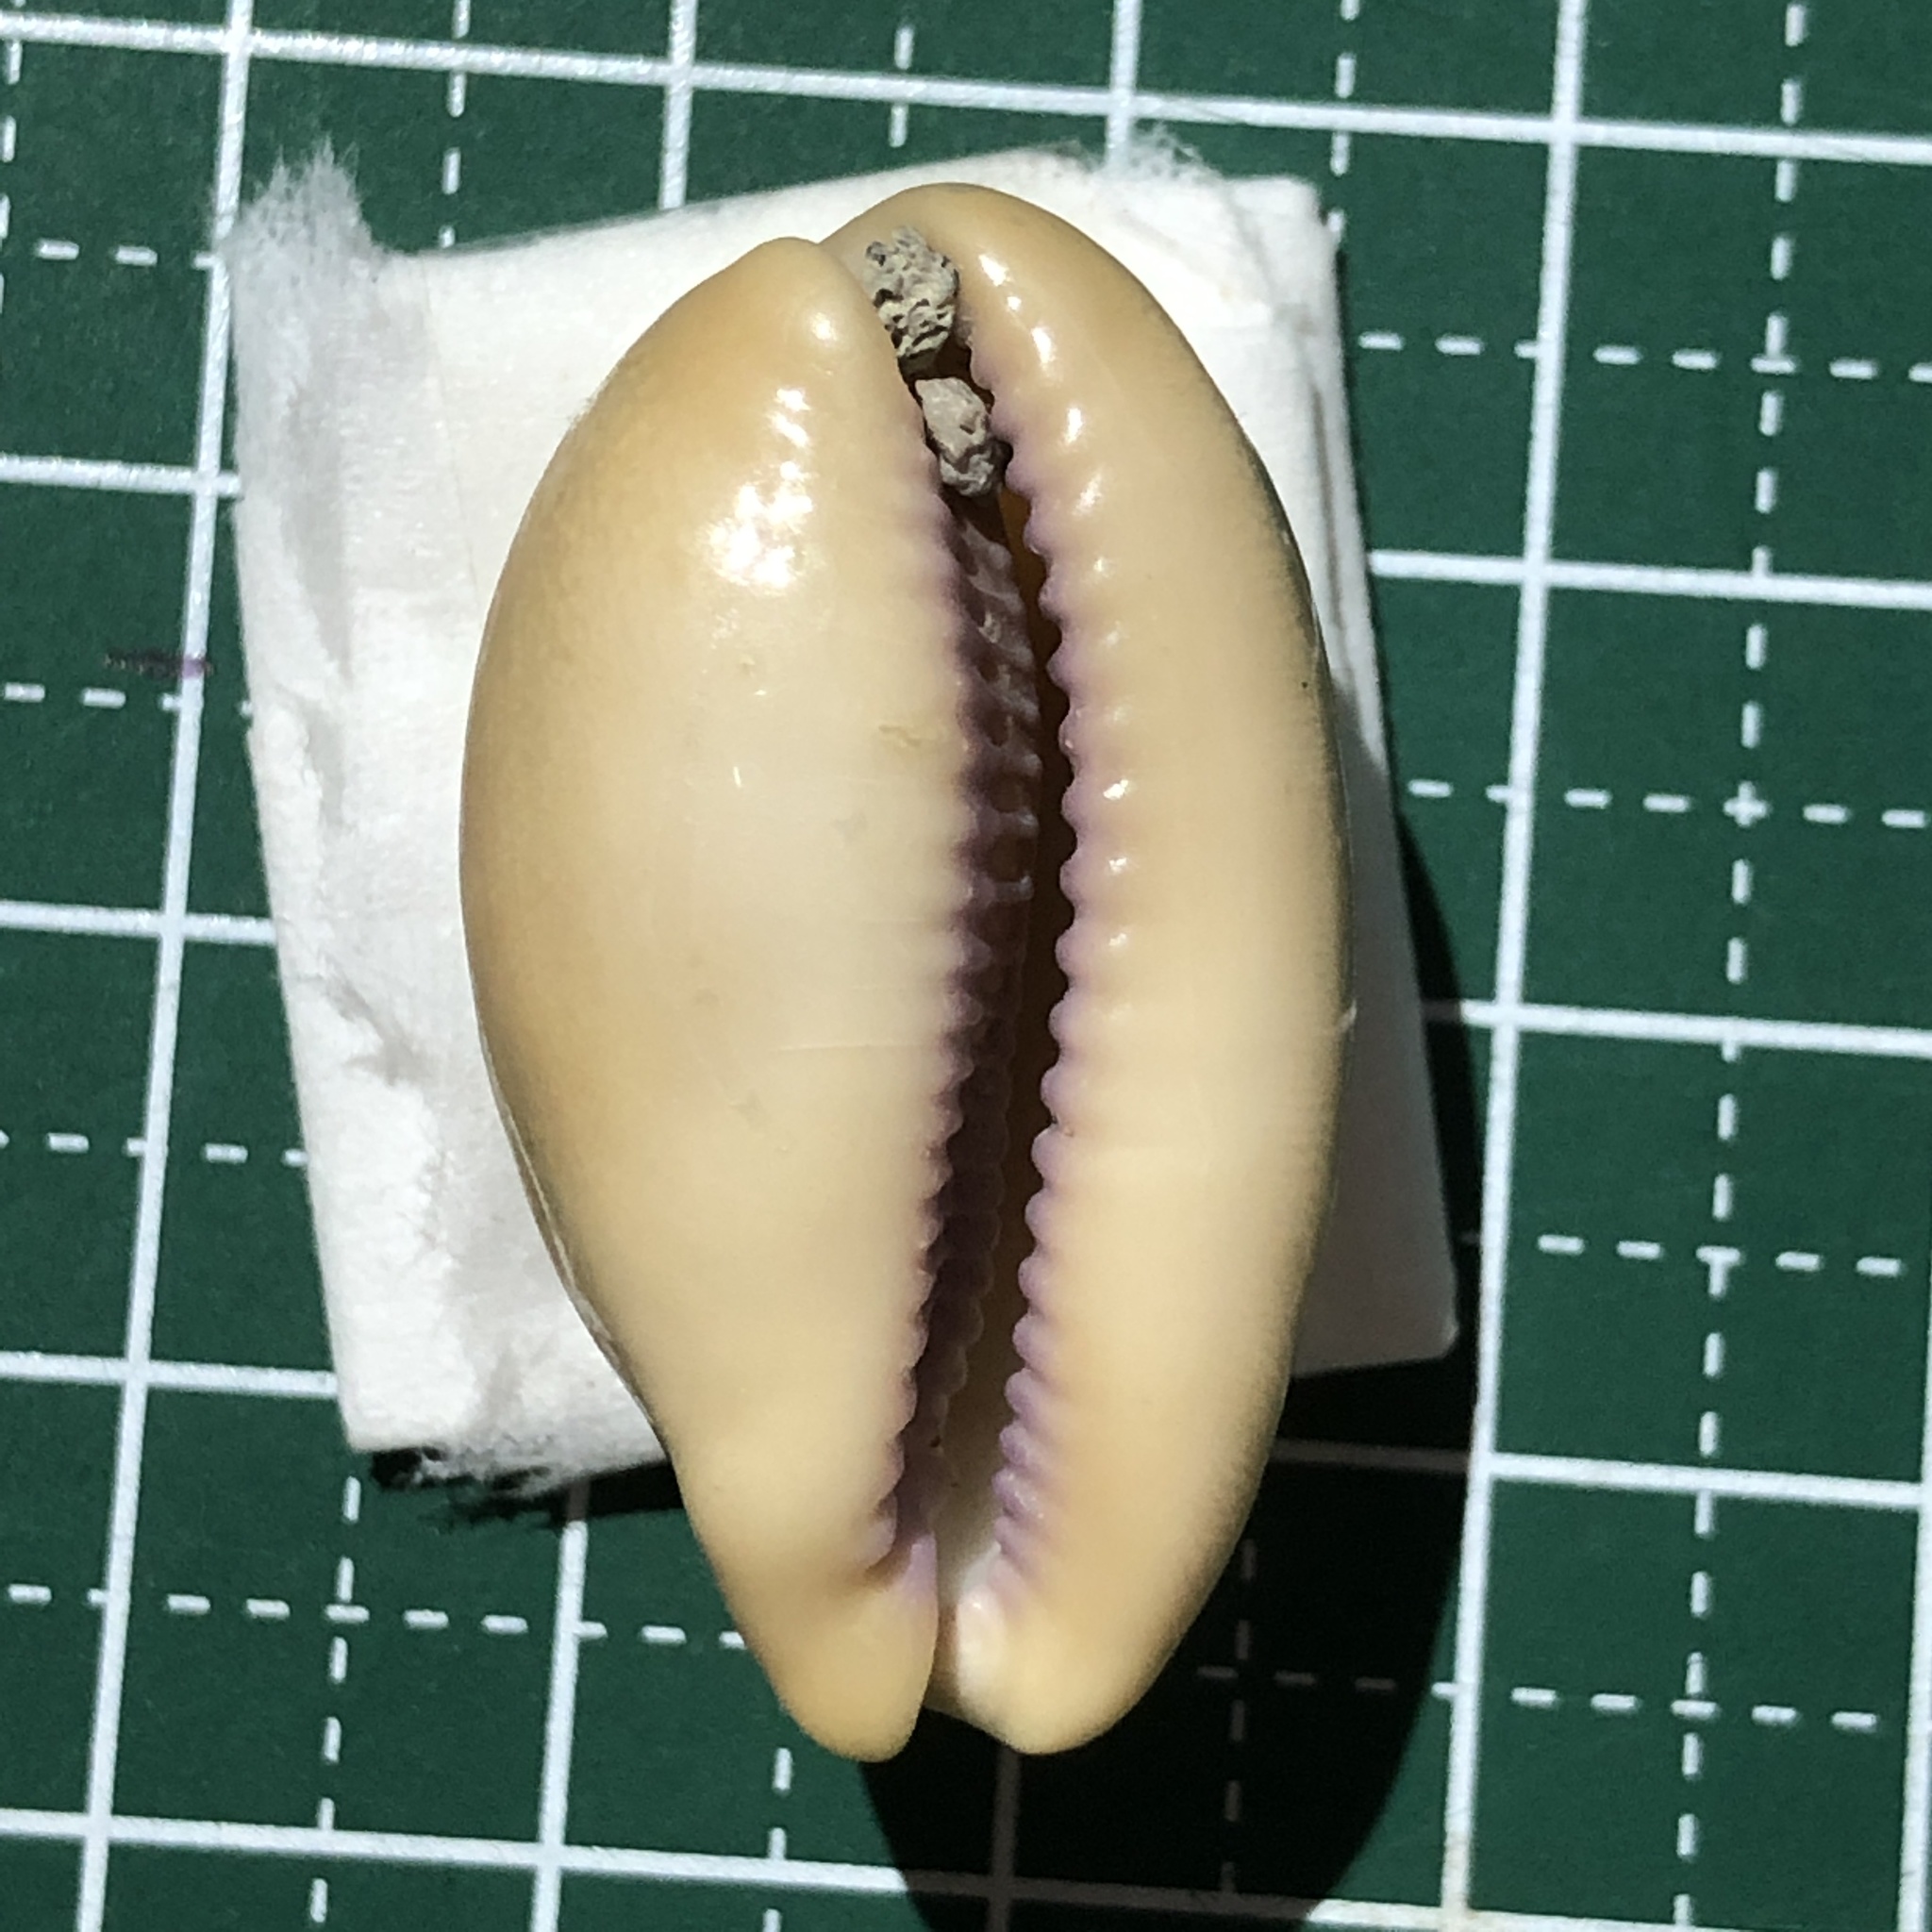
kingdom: Animalia
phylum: Mollusca
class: Gastropoda
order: Littorinimorpha
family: Cypraeidae
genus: Lyncina
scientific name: Lyncina carneola
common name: Purple-mouthed cowry
